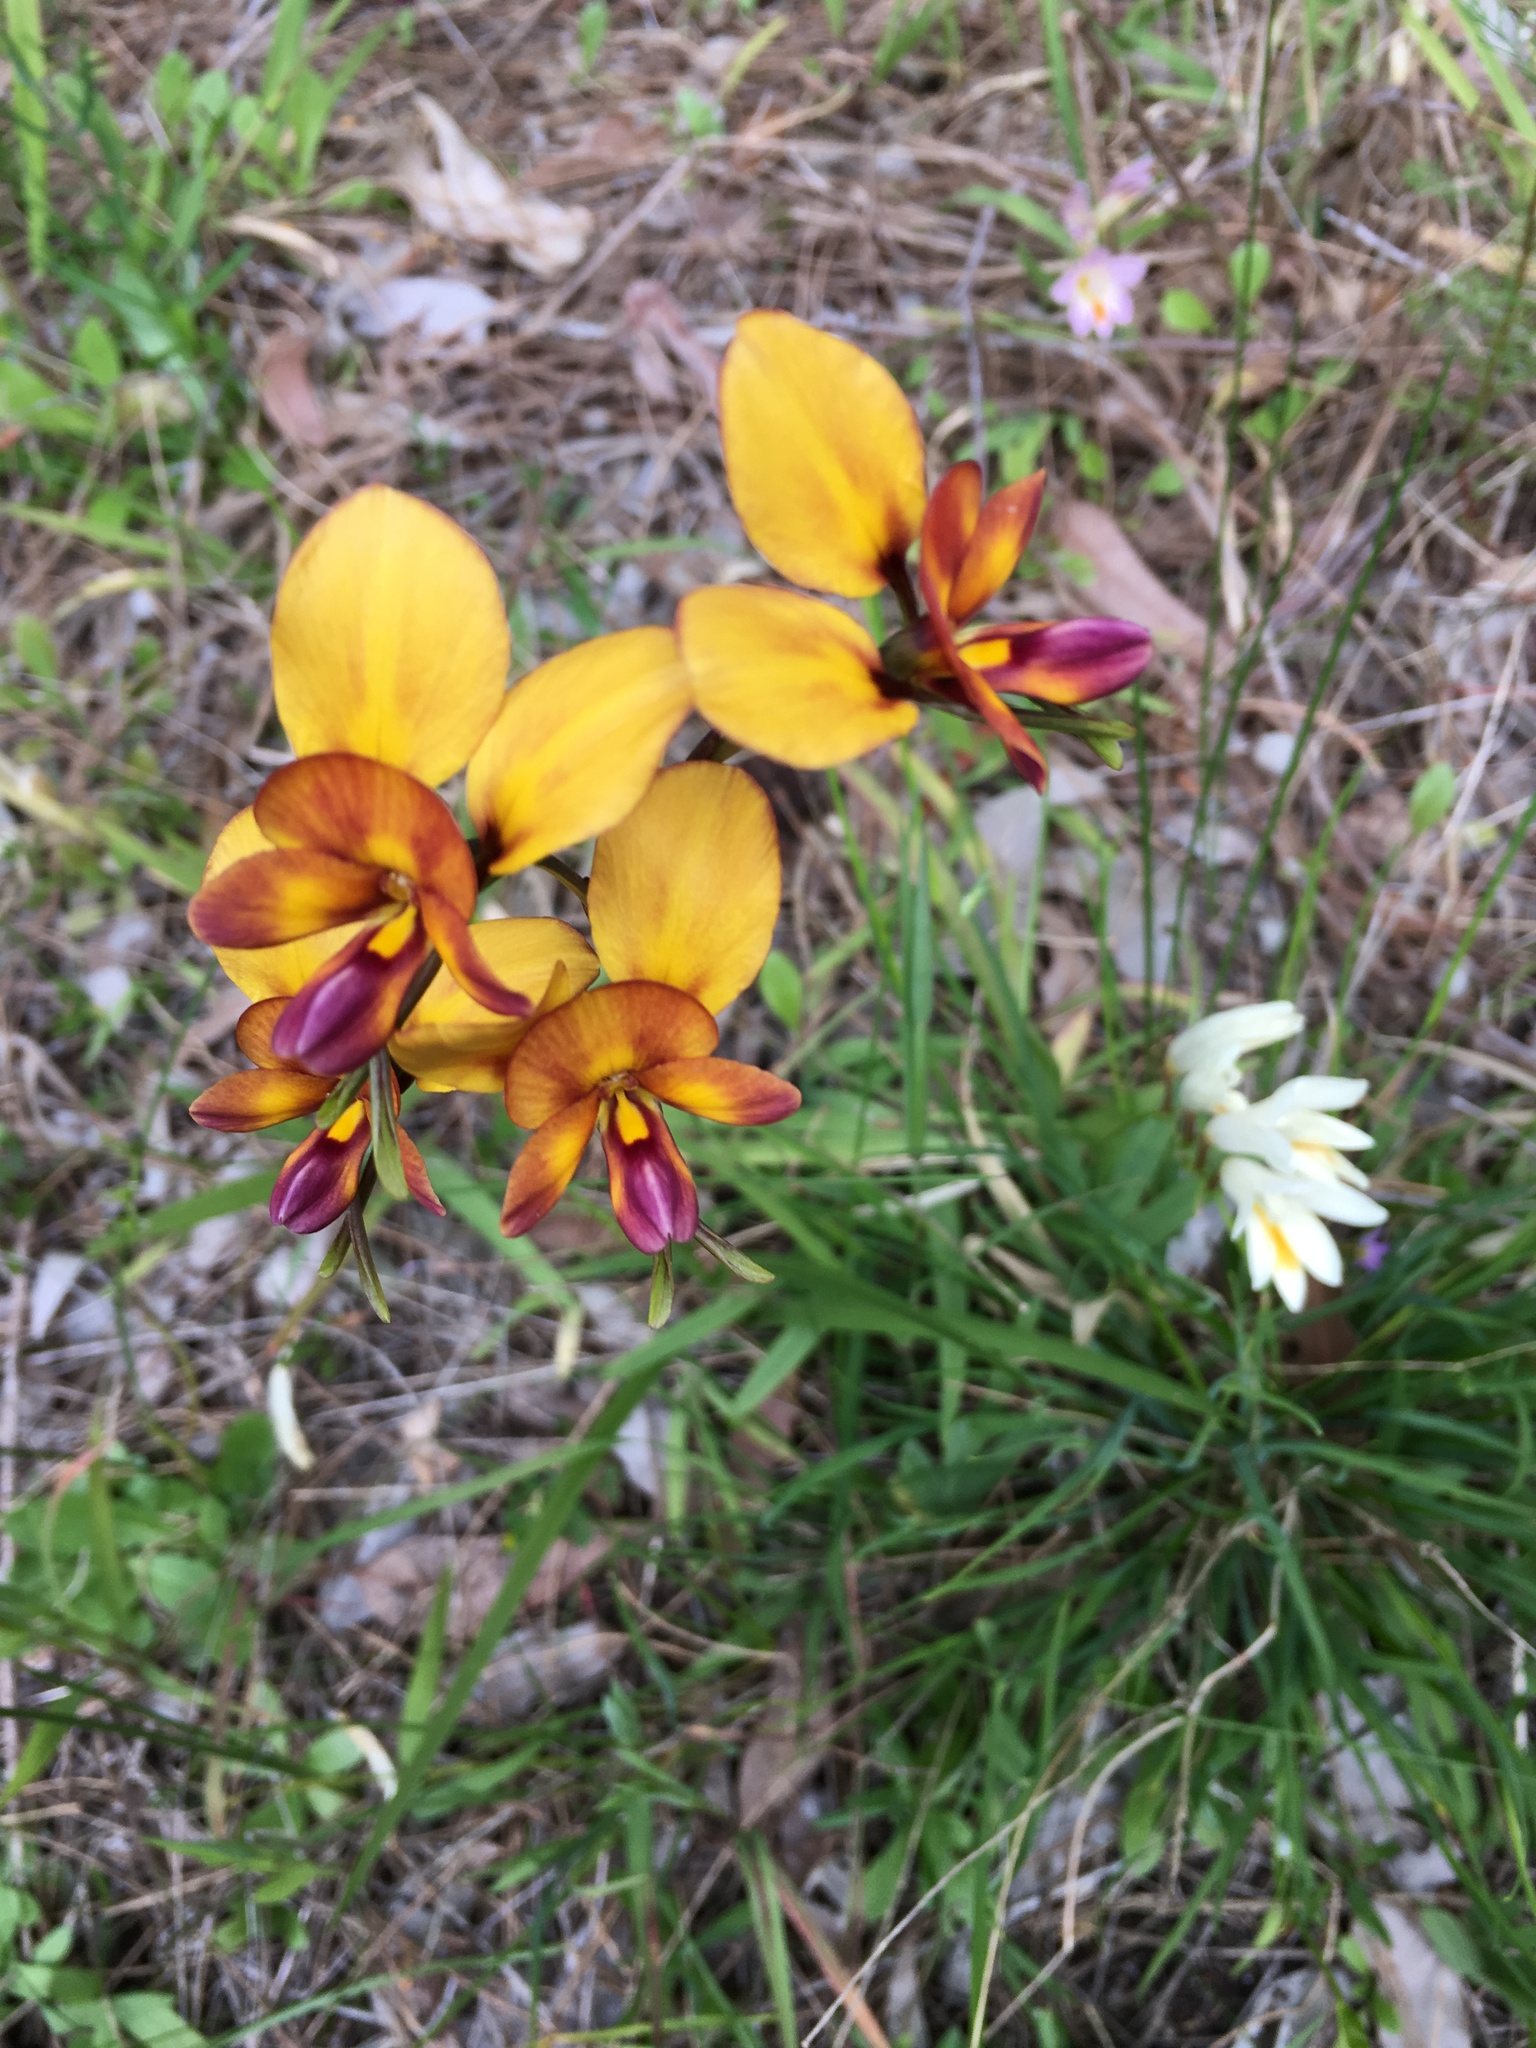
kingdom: Plantae
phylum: Tracheophyta
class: Liliopsida
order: Asparagales
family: Orchidaceae
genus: Diuris
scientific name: Diuris magnifica
